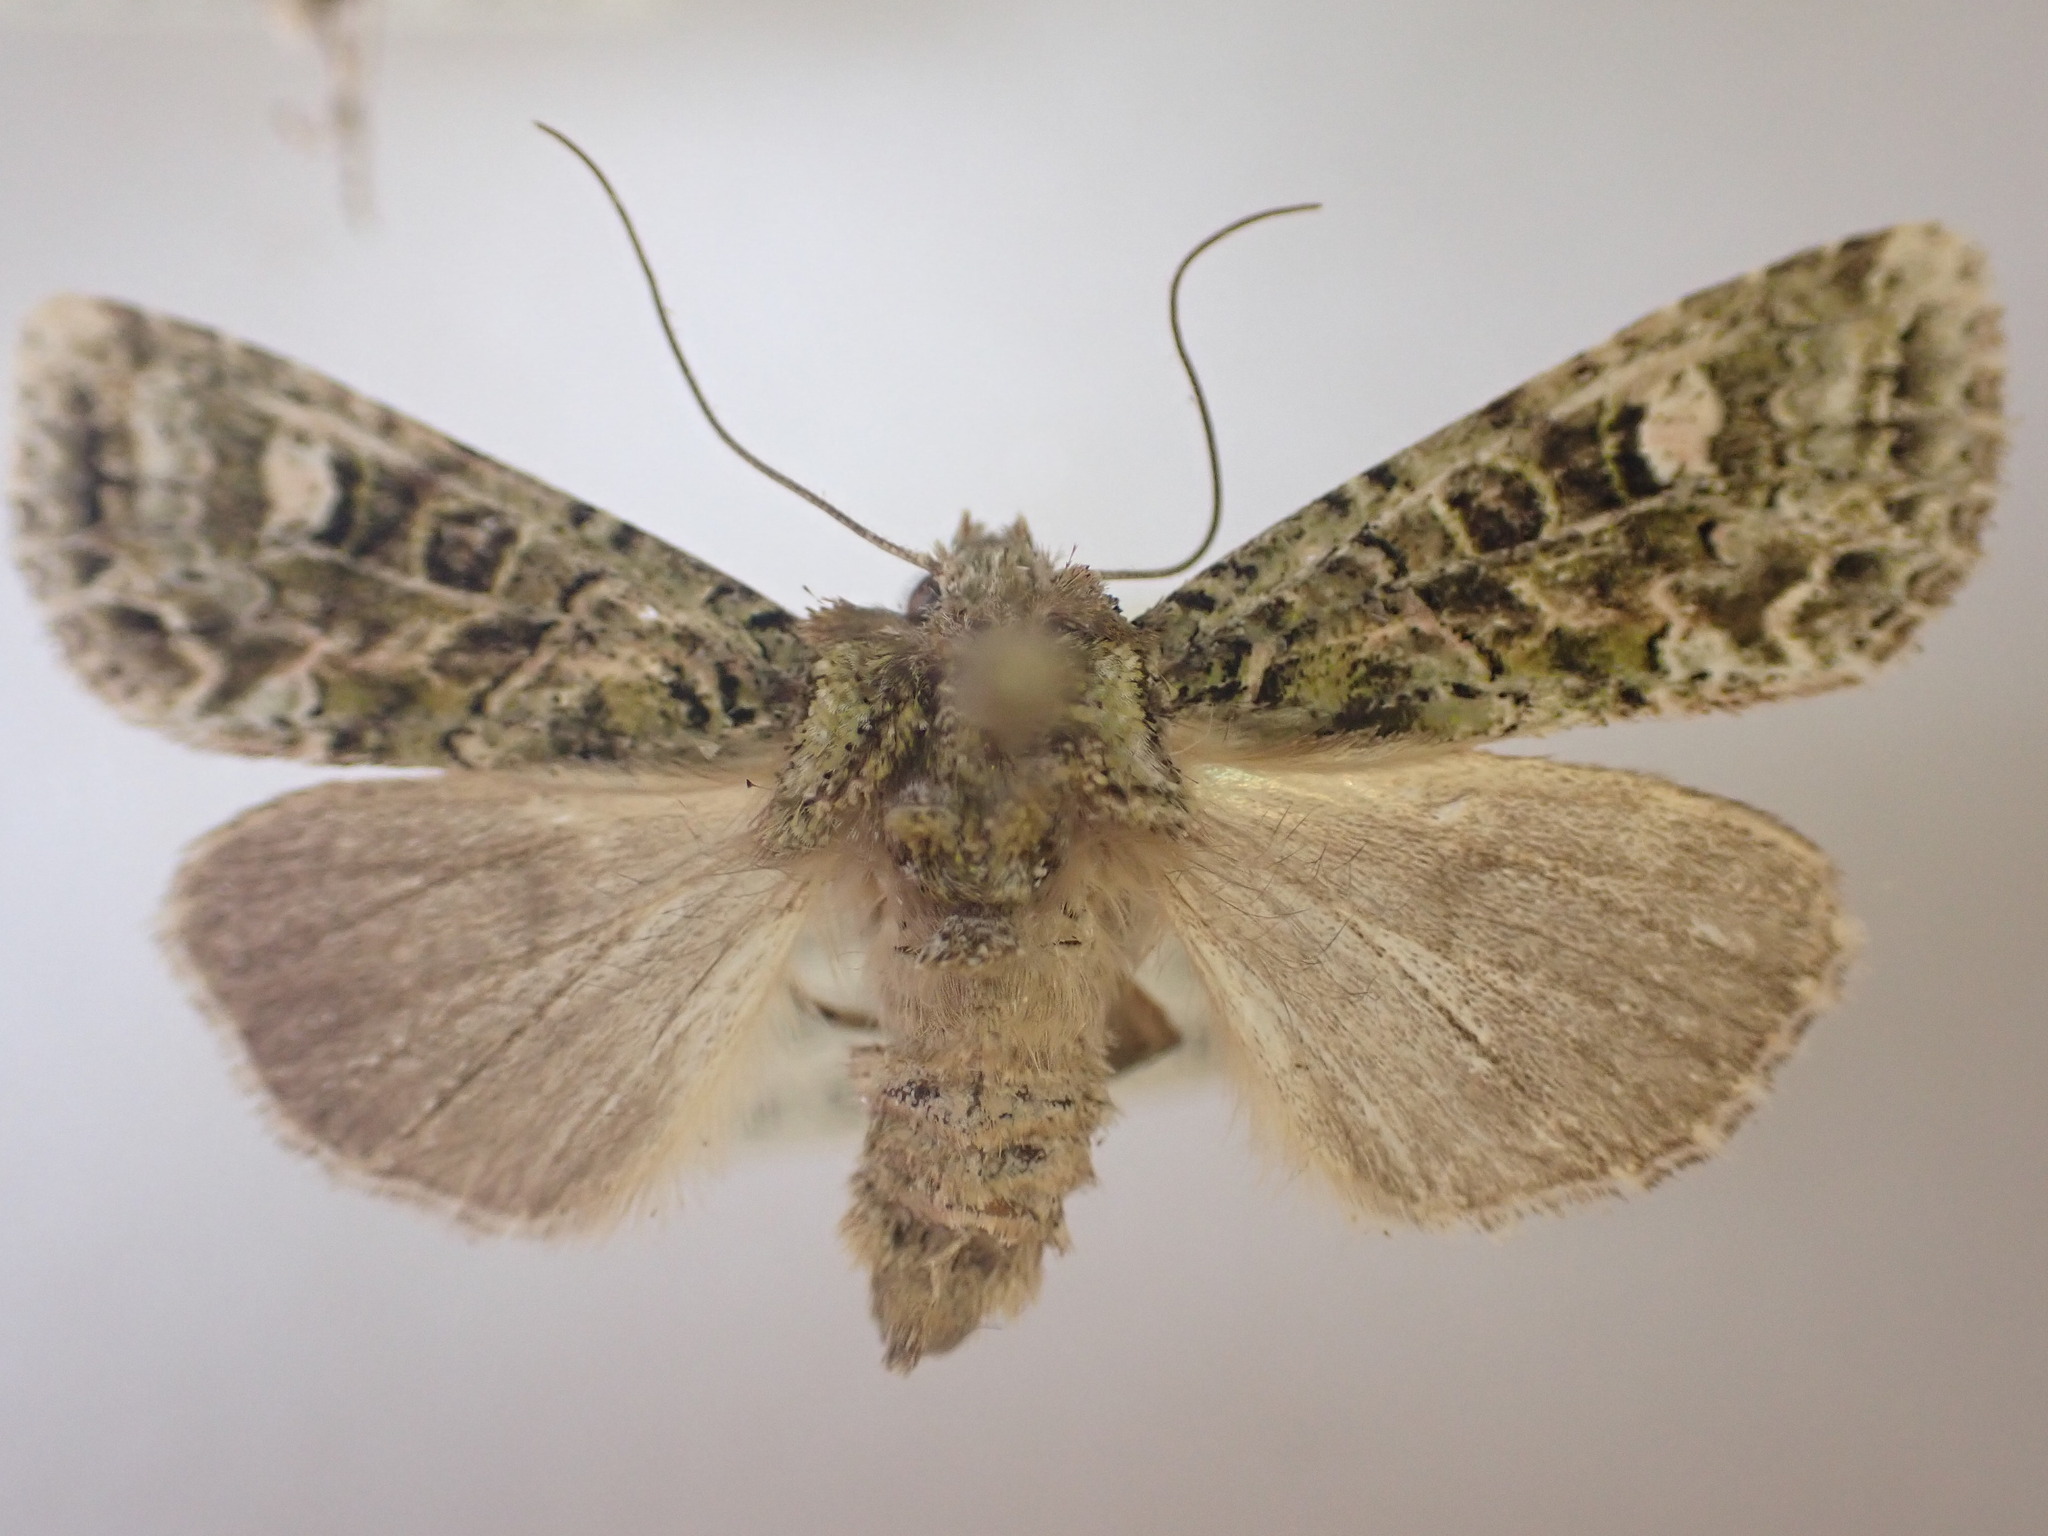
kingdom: Animalia
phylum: Arthropoda
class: Insecta
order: Lepidoptera
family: Noctuidae
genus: Ichneutica
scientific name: Ichneutica
